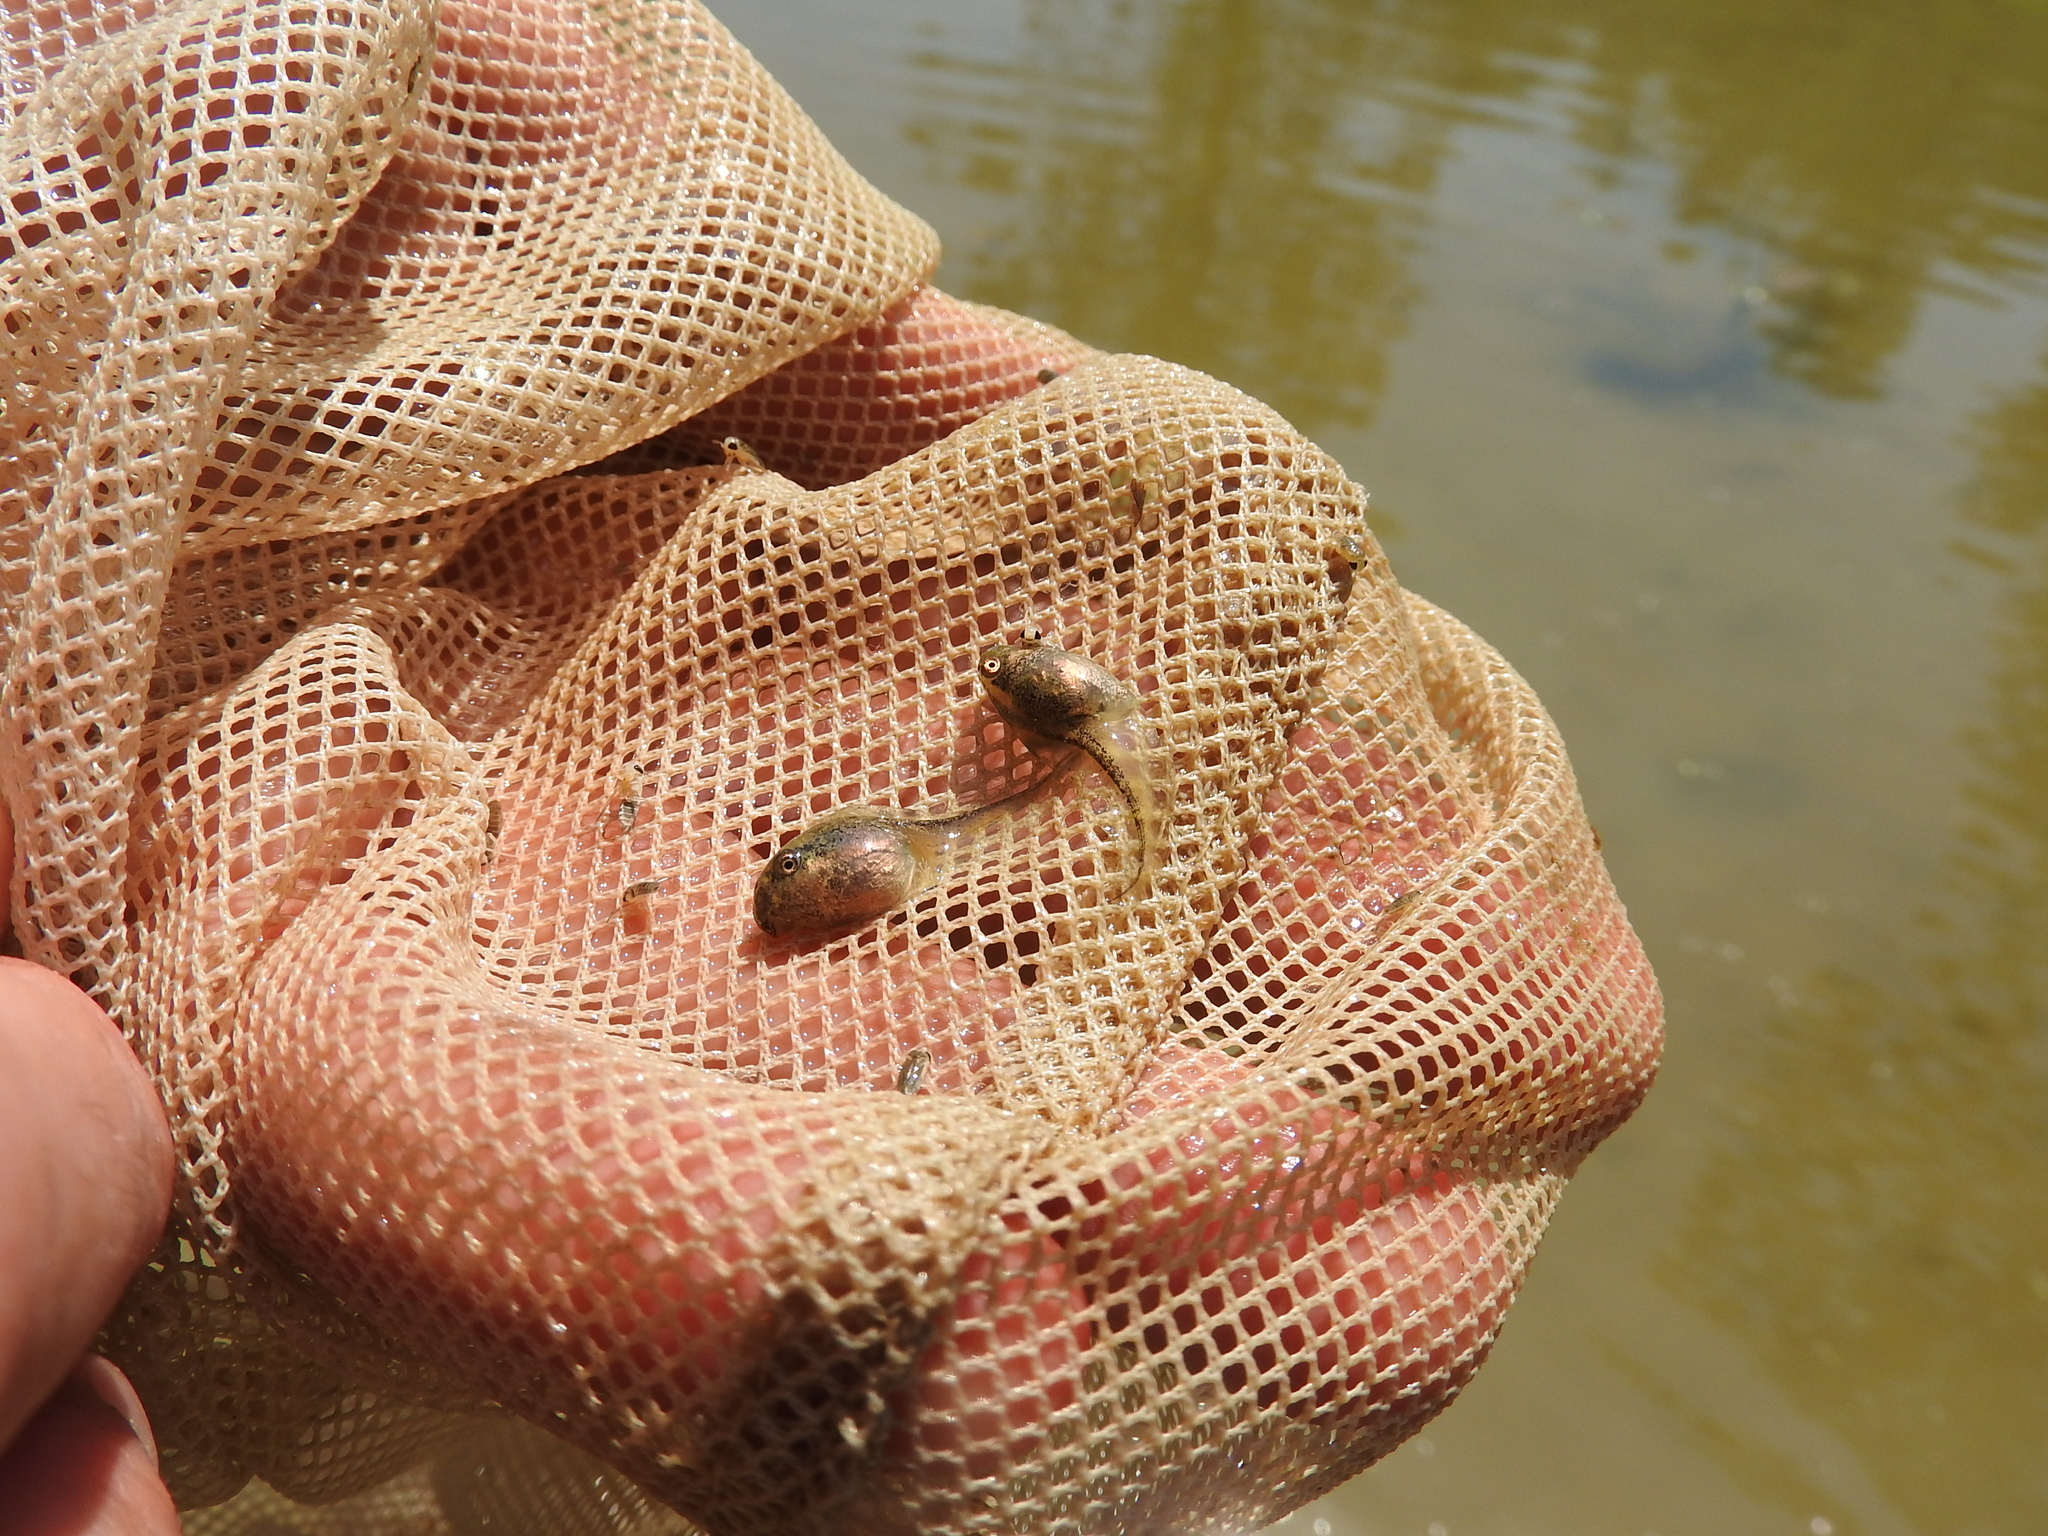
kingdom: Animalia
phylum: Chordata
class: Amphibia
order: Anura
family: Hylidae
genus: Hyla
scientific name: Hyla intermedia
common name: Italian tree frog
